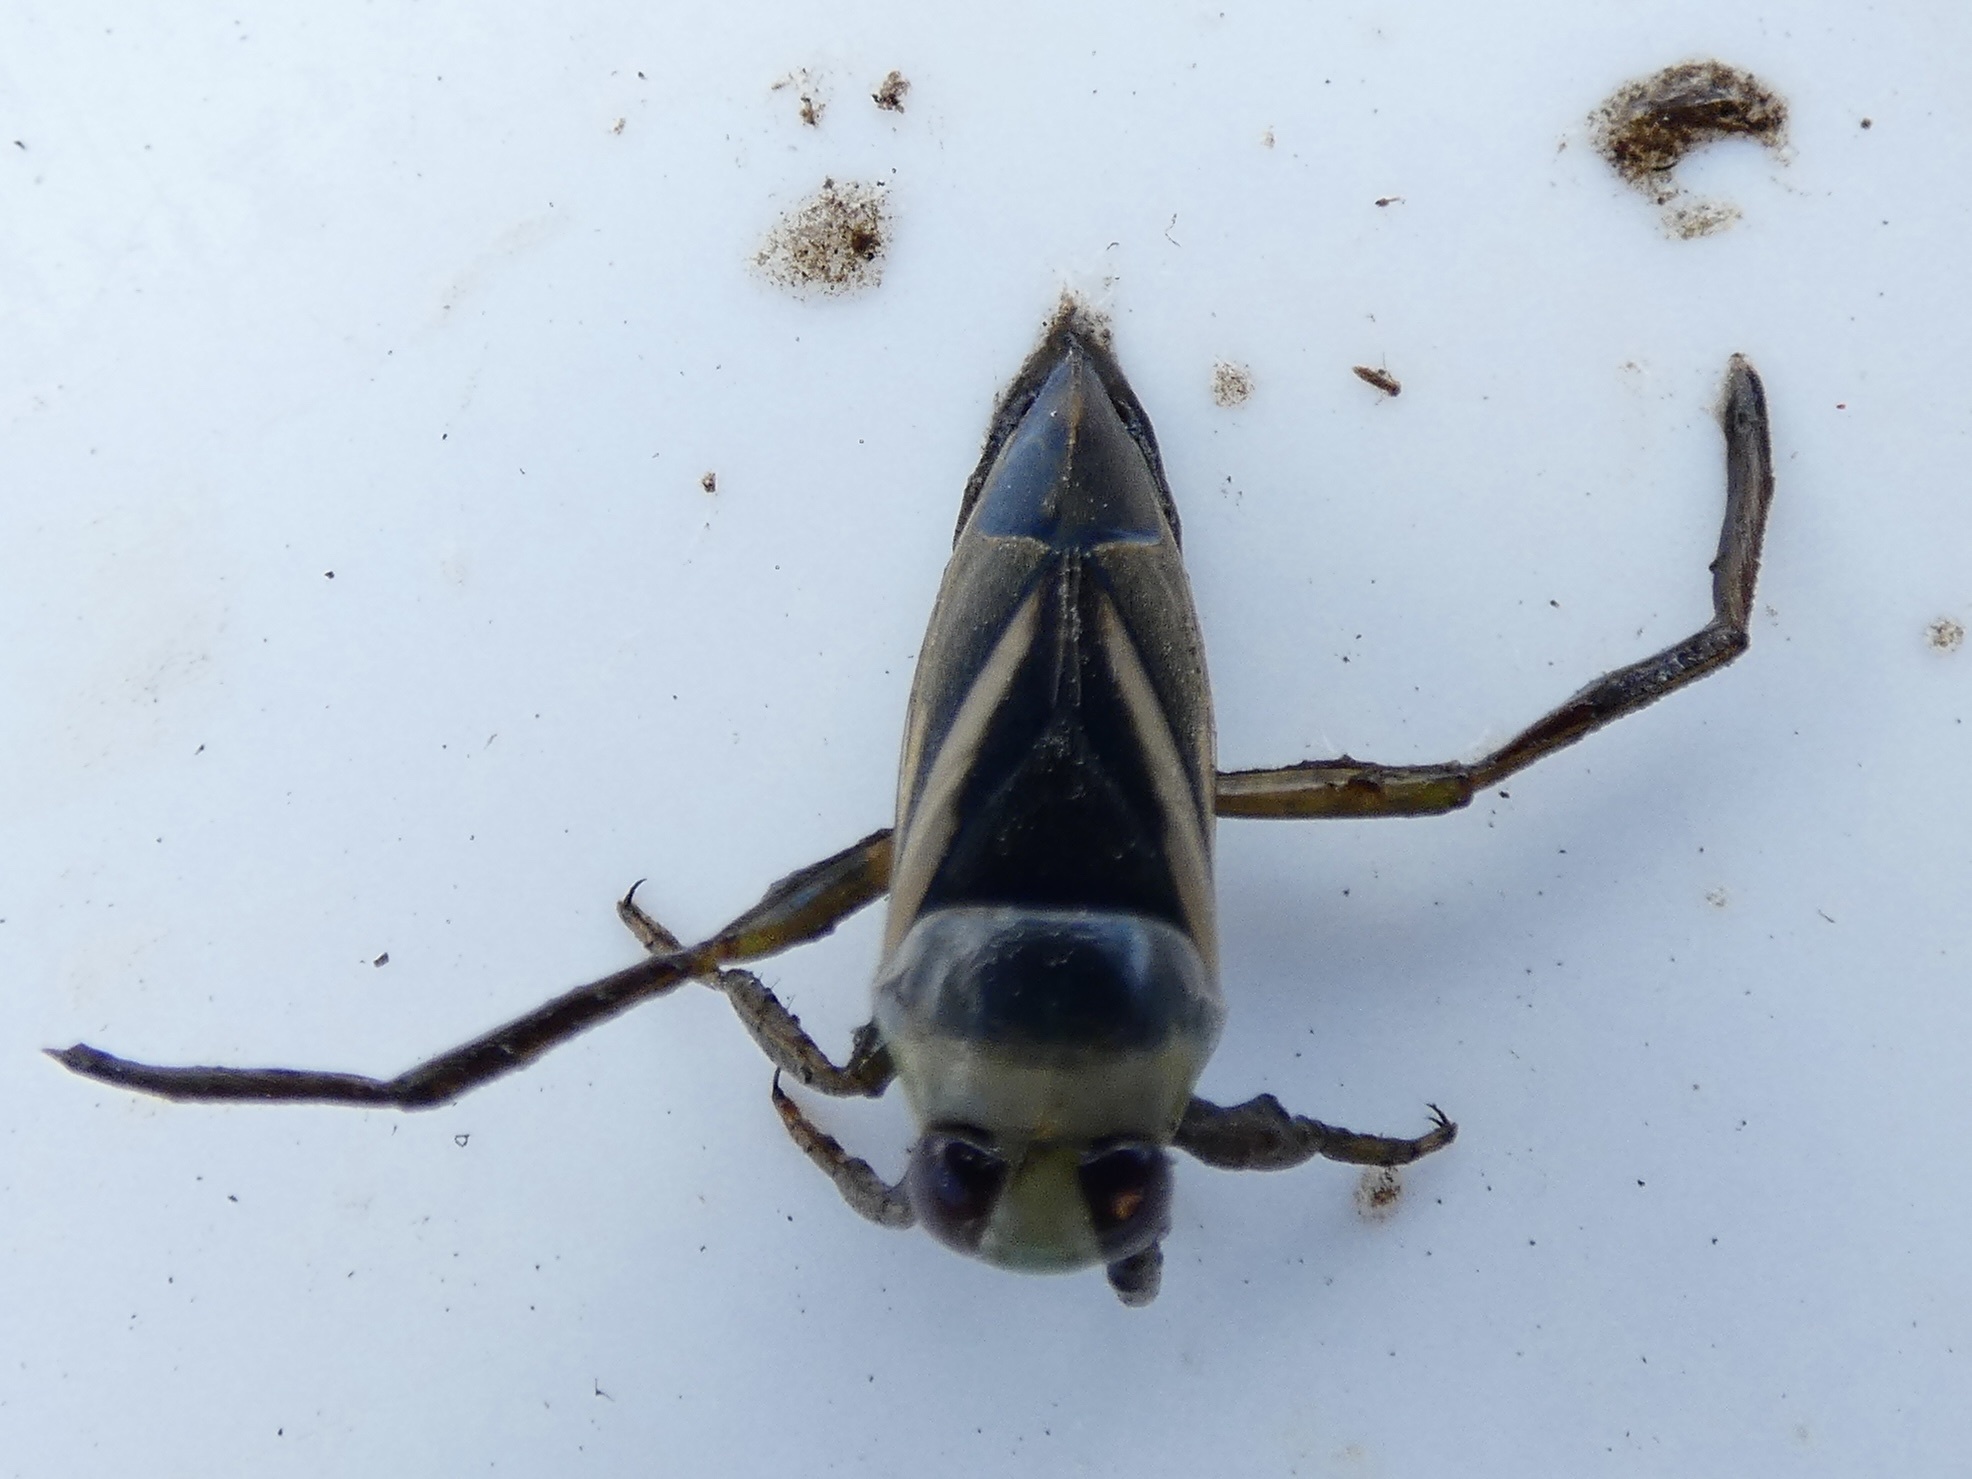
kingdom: Animalia
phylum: Arthropoda
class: Insecta
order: Hemiptera
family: Notonectidae
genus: Notonecta
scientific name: Notonecta obliqua
